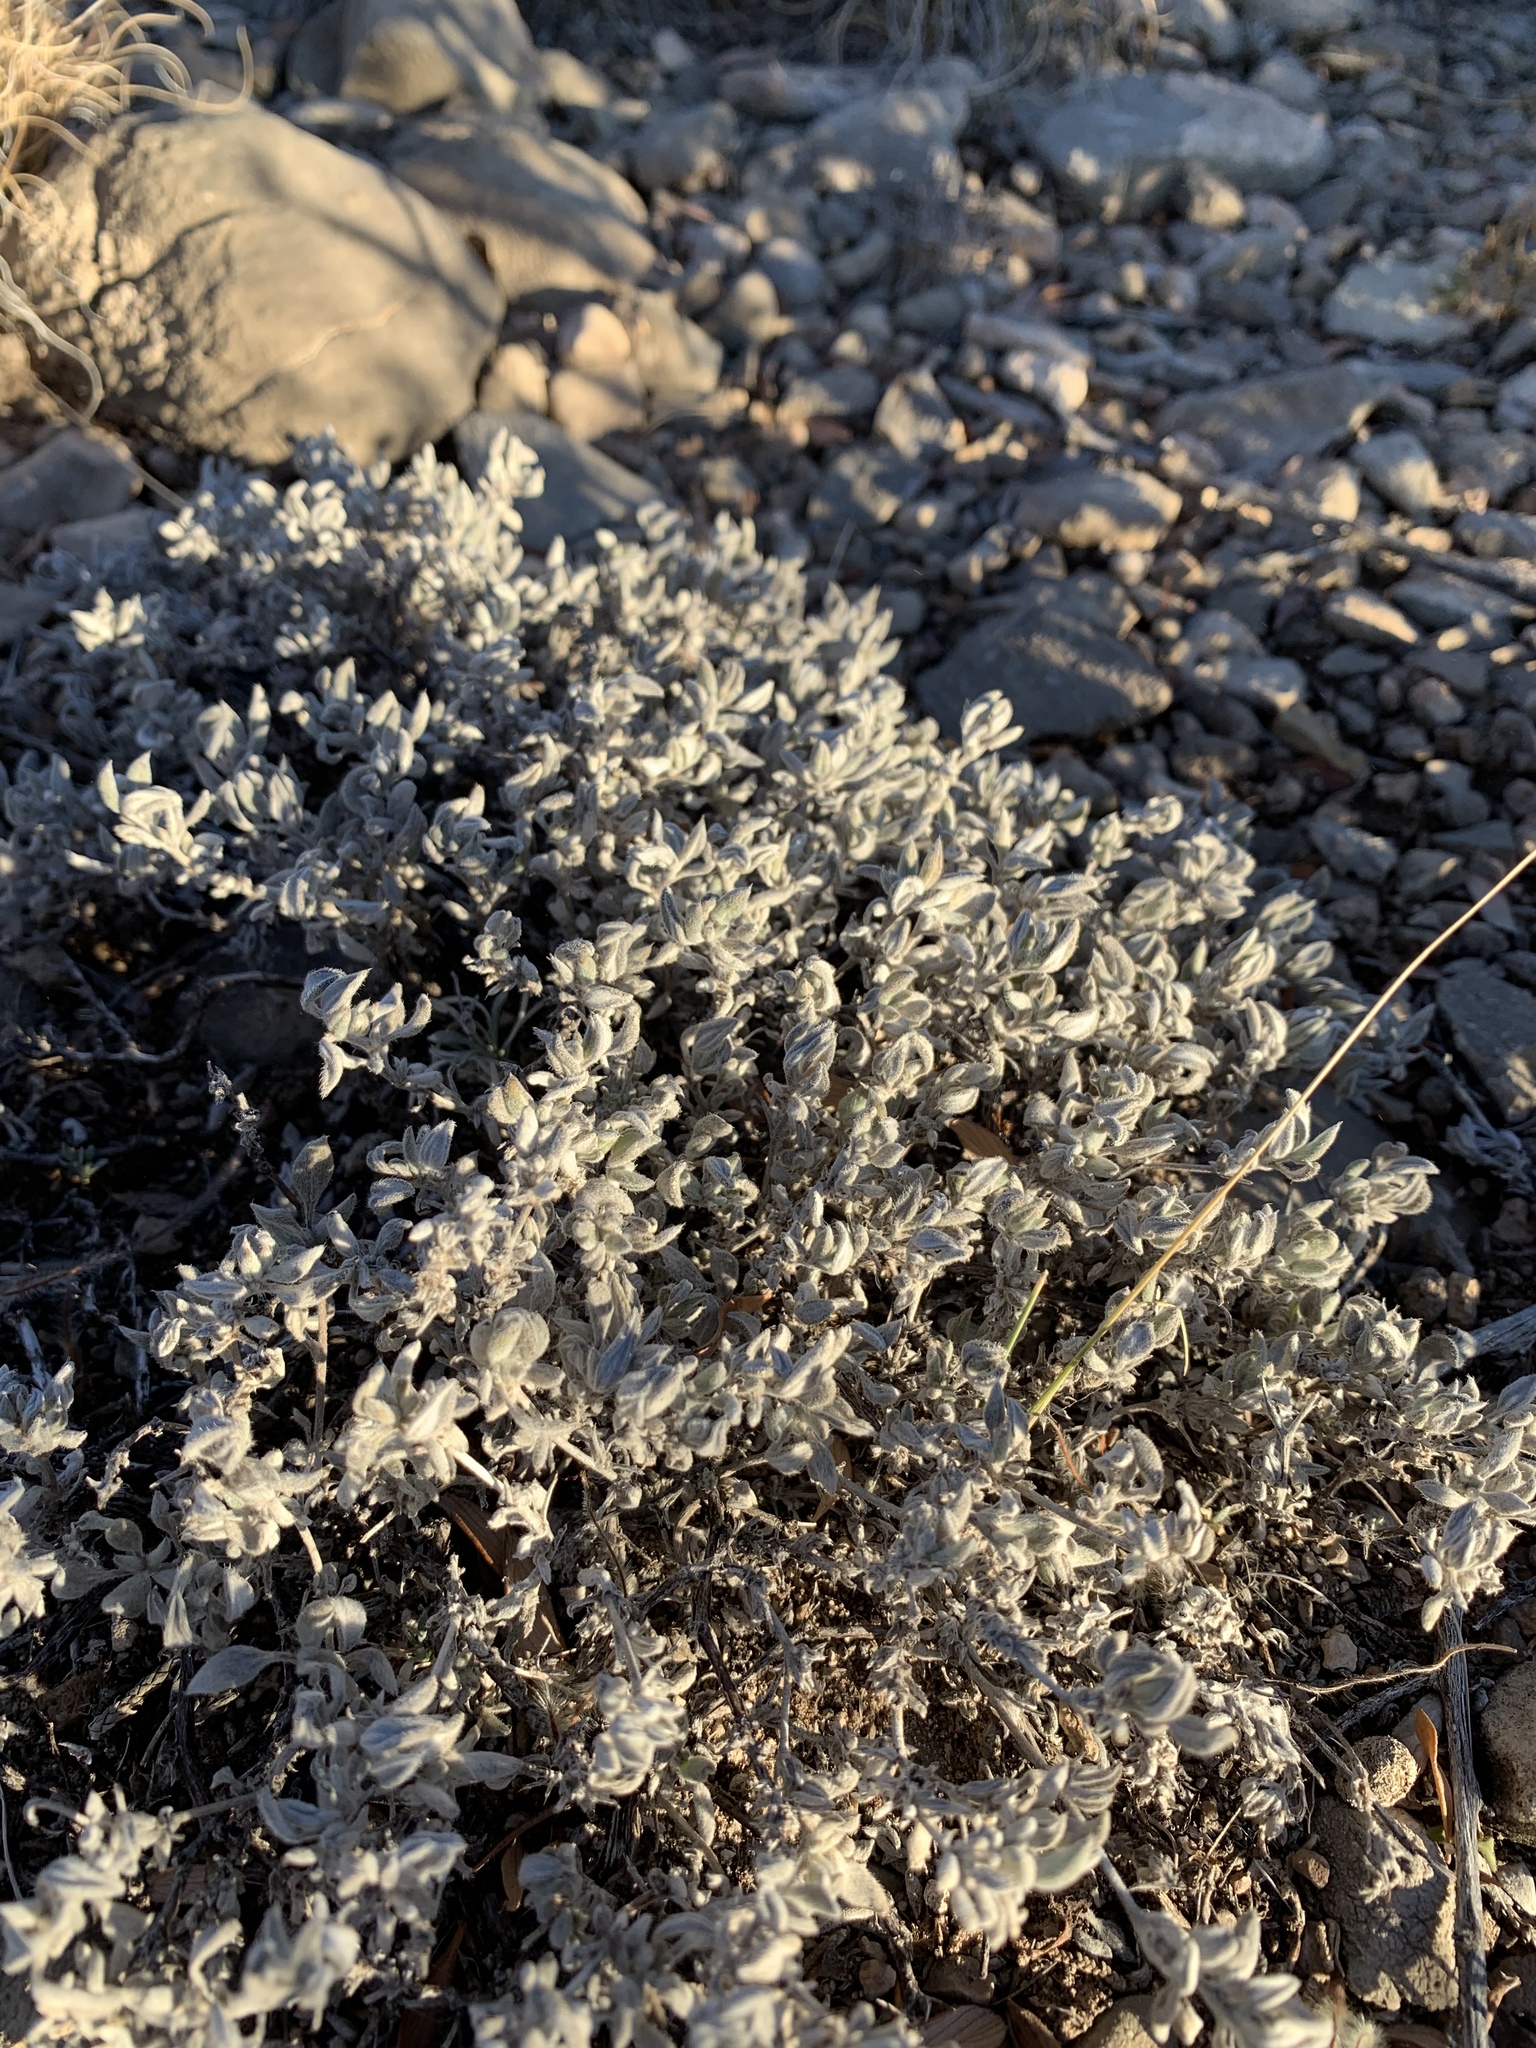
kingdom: Plantae
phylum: Tracheophyta
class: Magnoliopsida
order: Boraginales
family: Ehretiaceae
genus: Tiquilia
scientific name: Tiquilia canescens
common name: Hairy tiquilia
